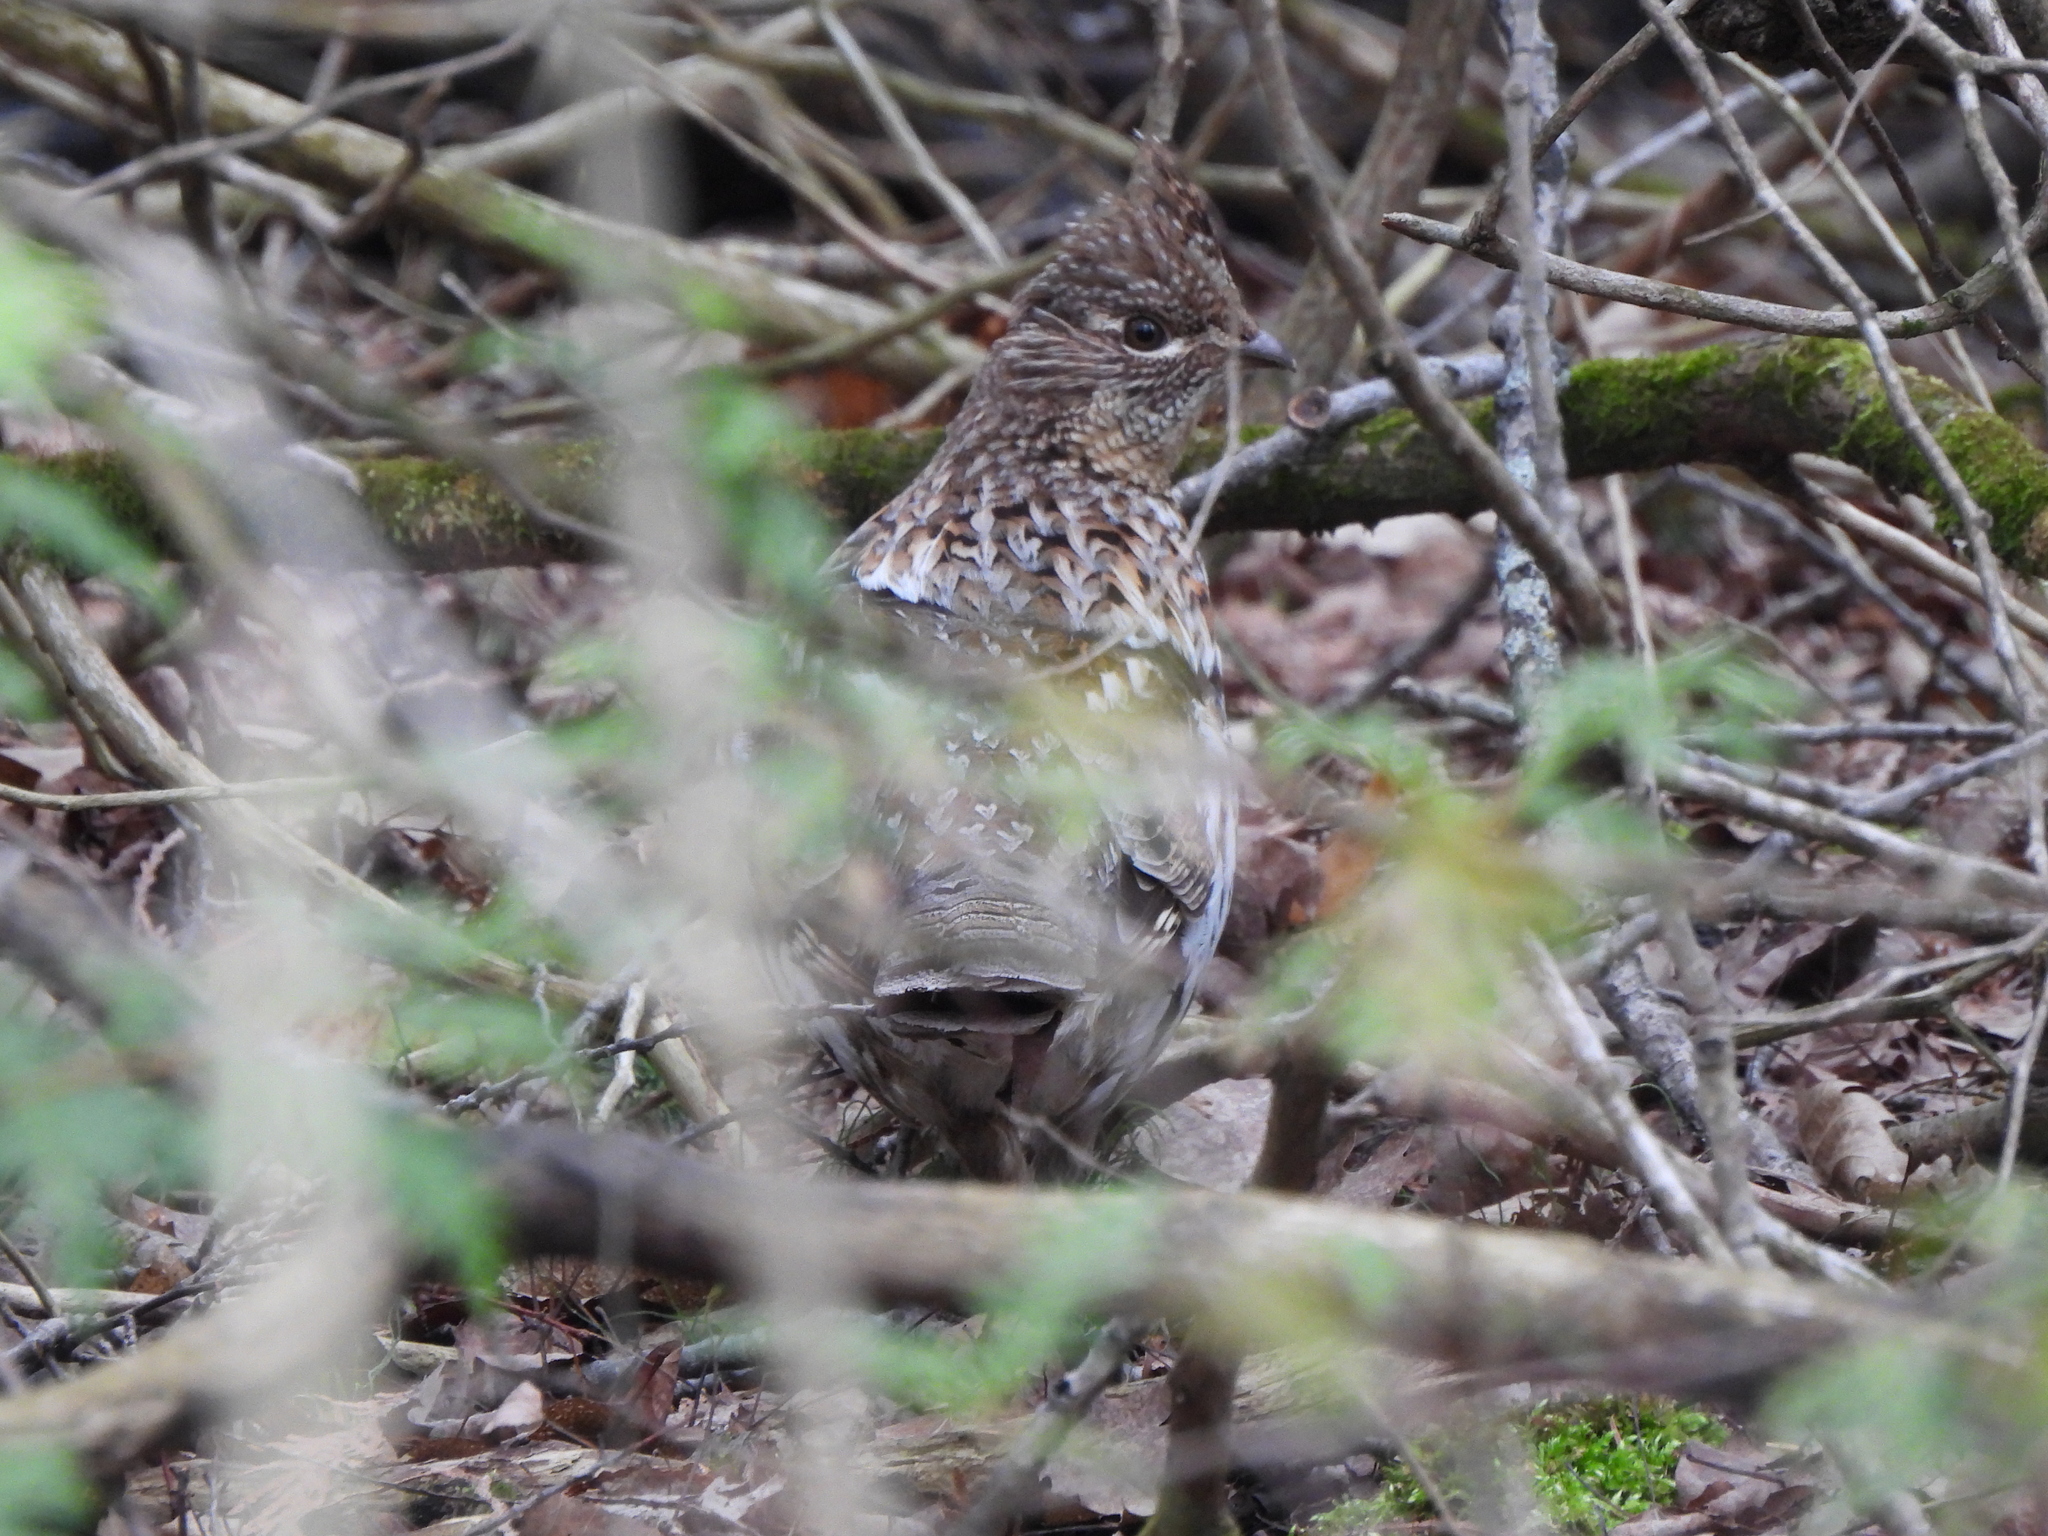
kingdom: Animalia
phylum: Chordata
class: Aves
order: Galliformes
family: Phasianidae
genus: Bonasa
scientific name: Bonasa umbellus
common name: Ruffed grouse
